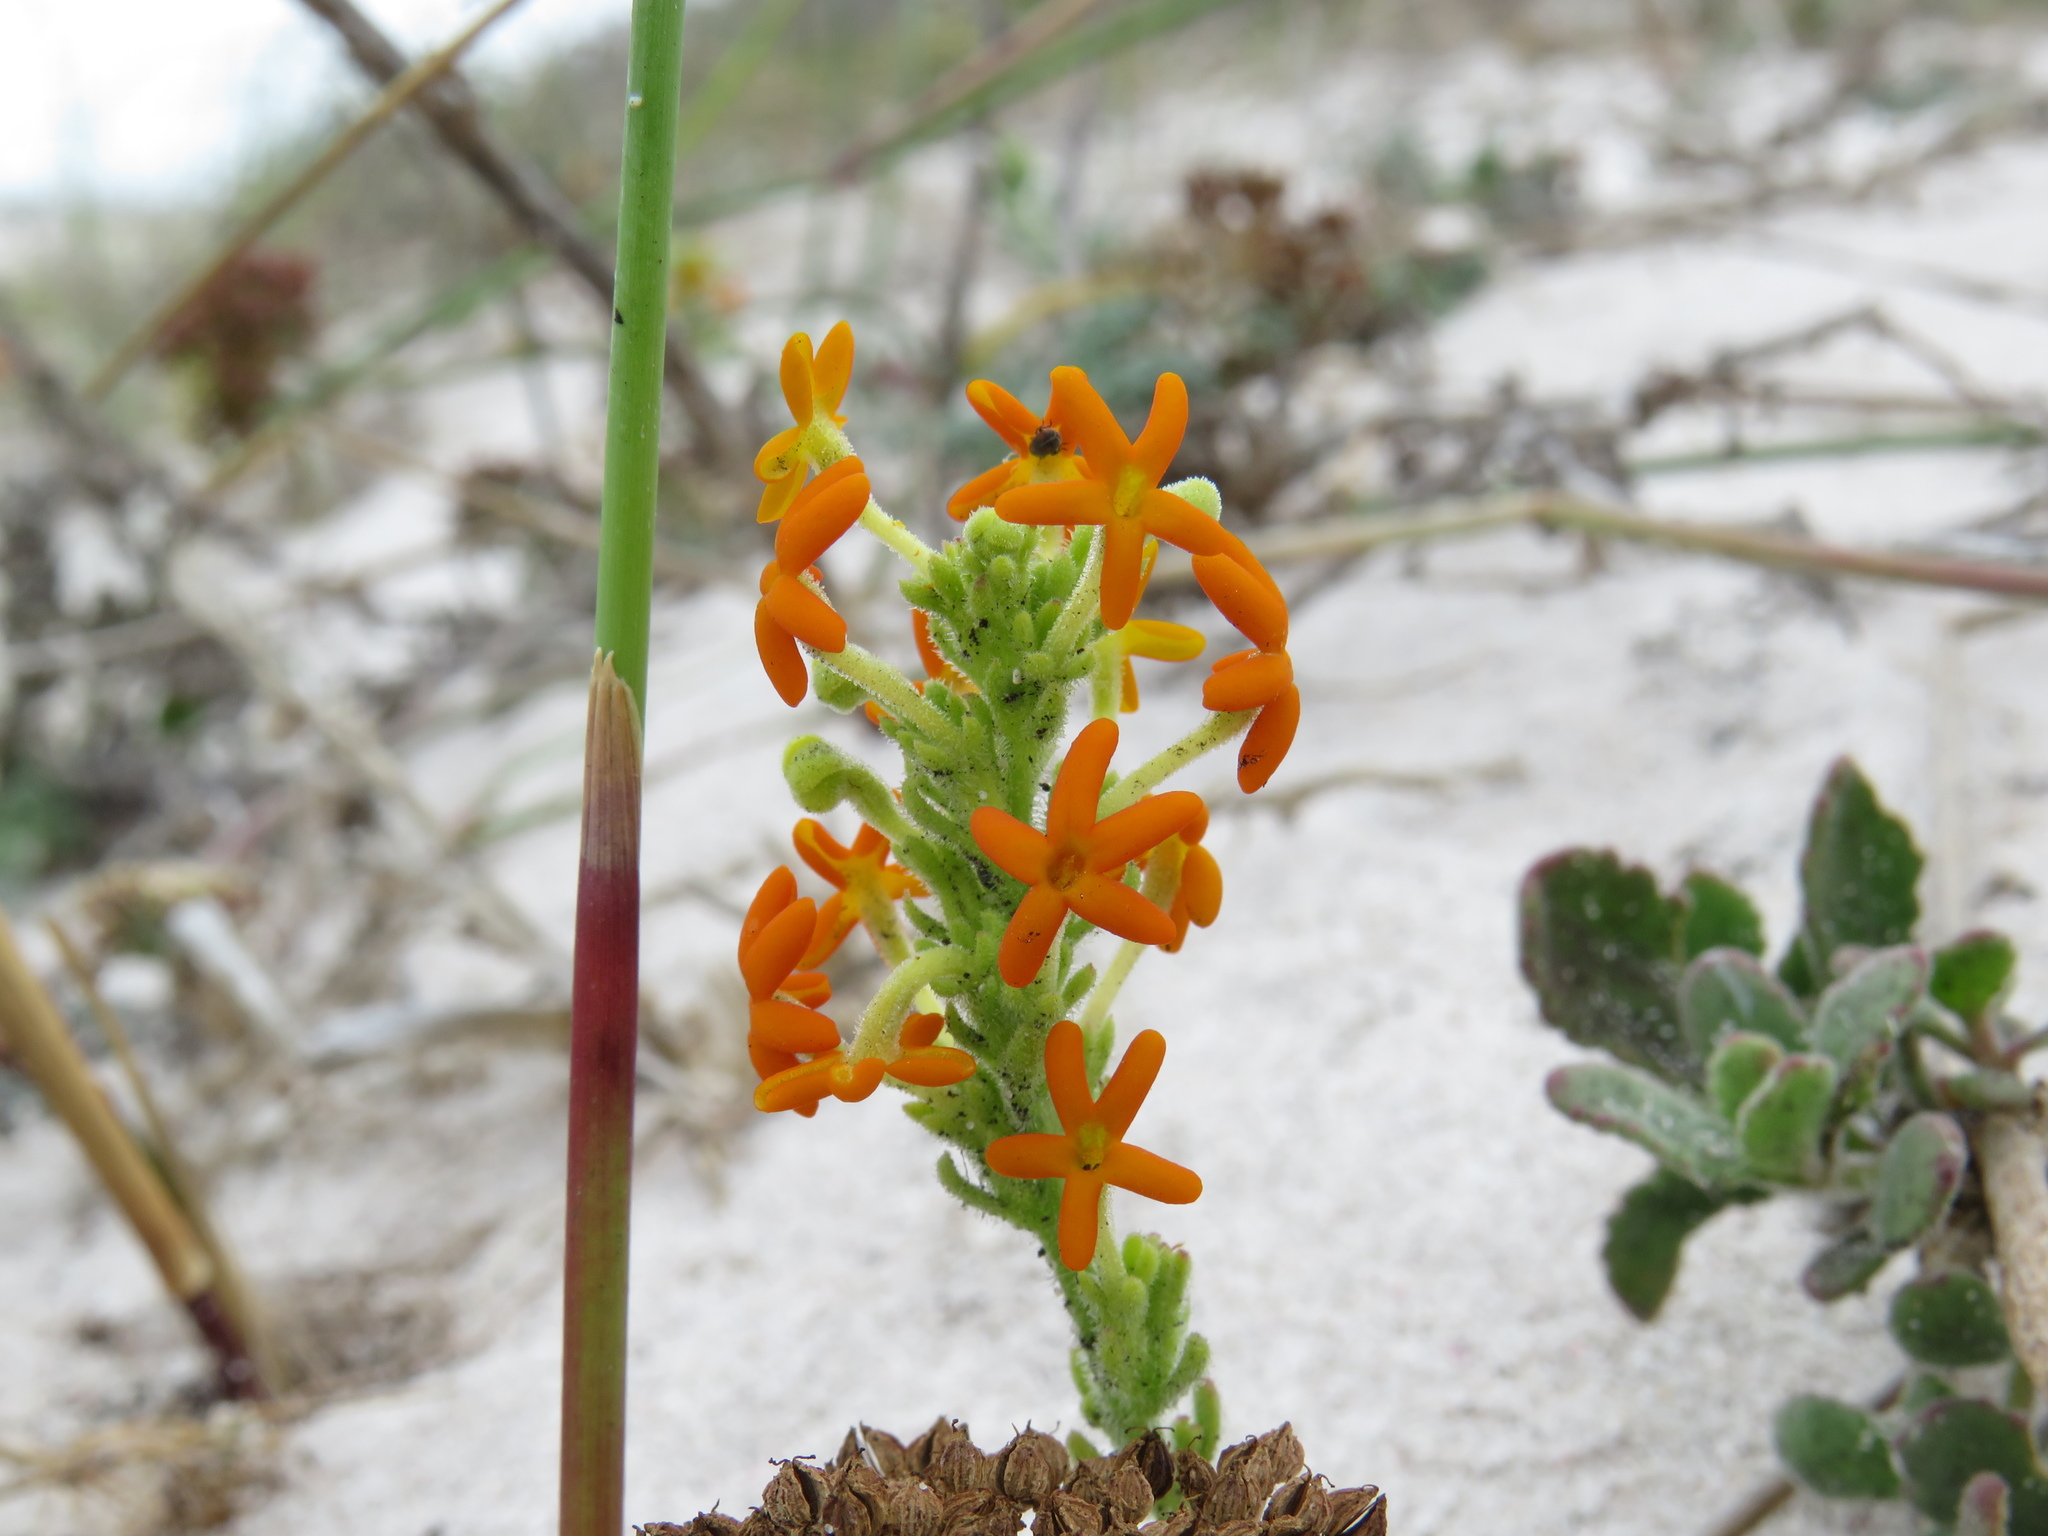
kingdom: Plantae
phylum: Tracheophyta
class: Magnoliopsida
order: Lamiales
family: Scrophulariaceae
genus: Manulea
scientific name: Manulea tomentosa
